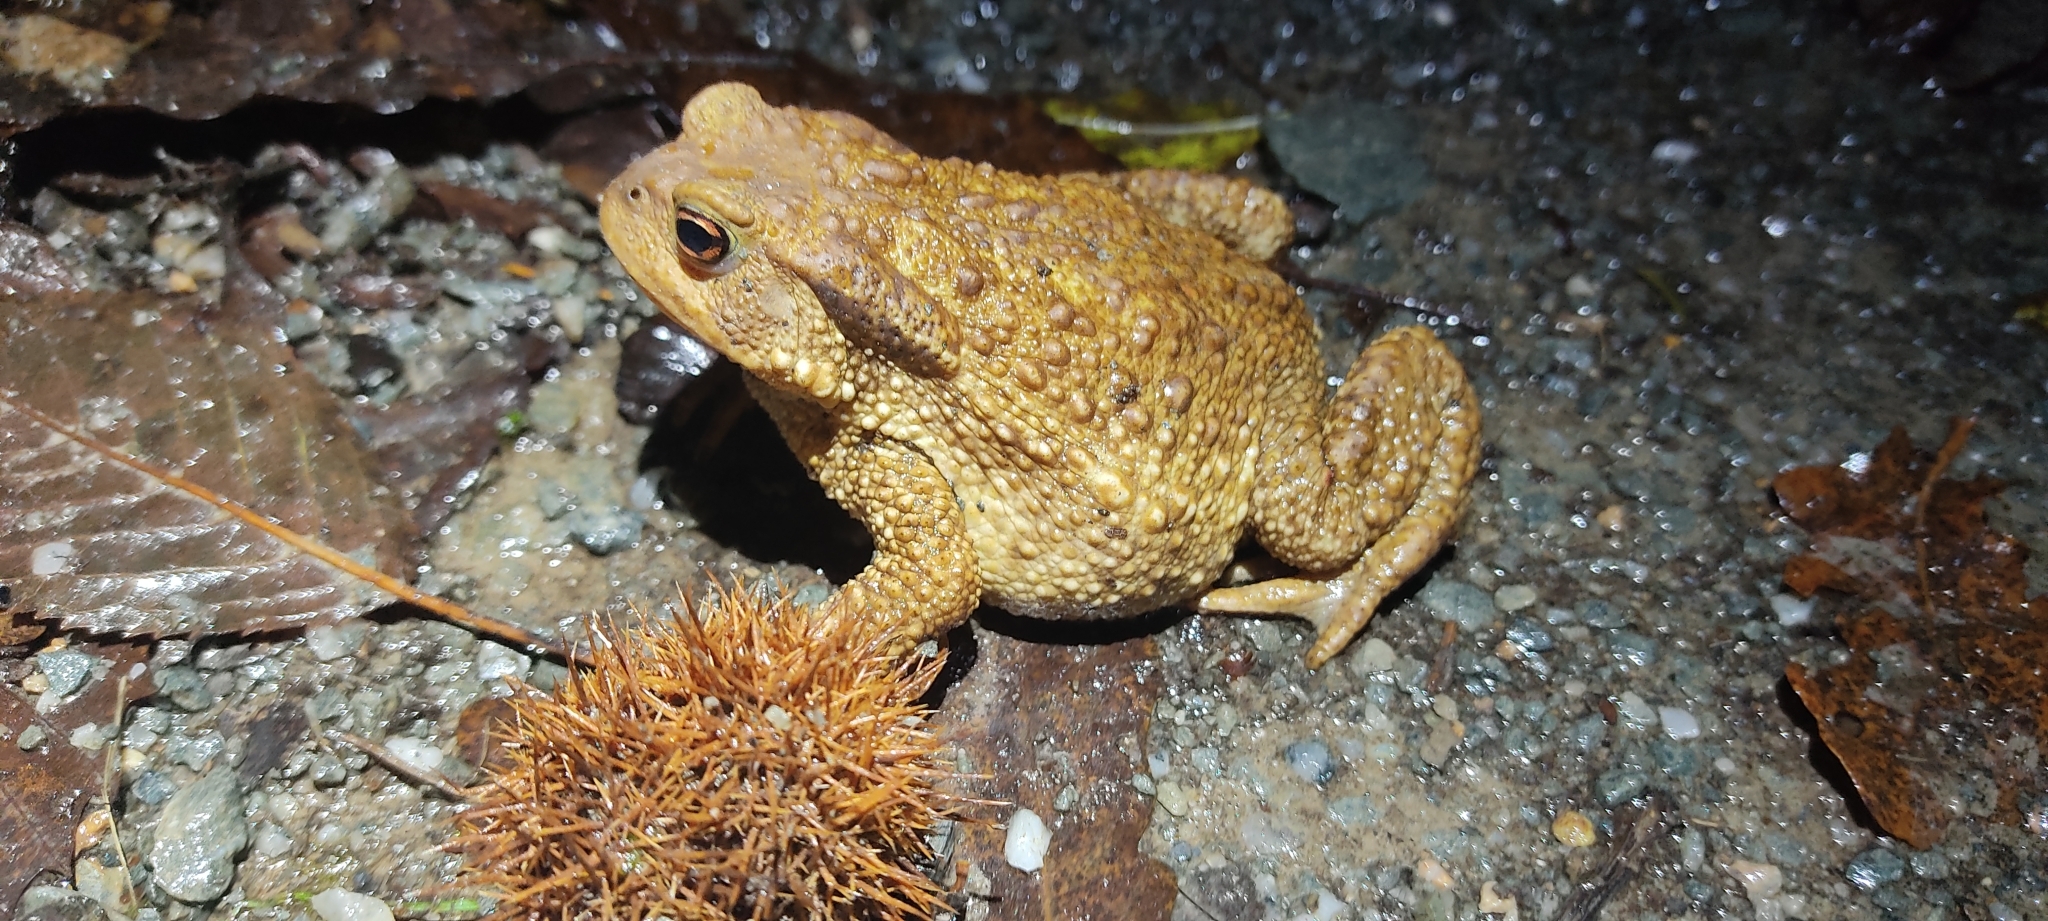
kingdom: Animalia
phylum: Chordata
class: Amphibia
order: Anura
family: Bufonidae
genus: Bufo
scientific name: Bufo spinosus
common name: Western common toad
